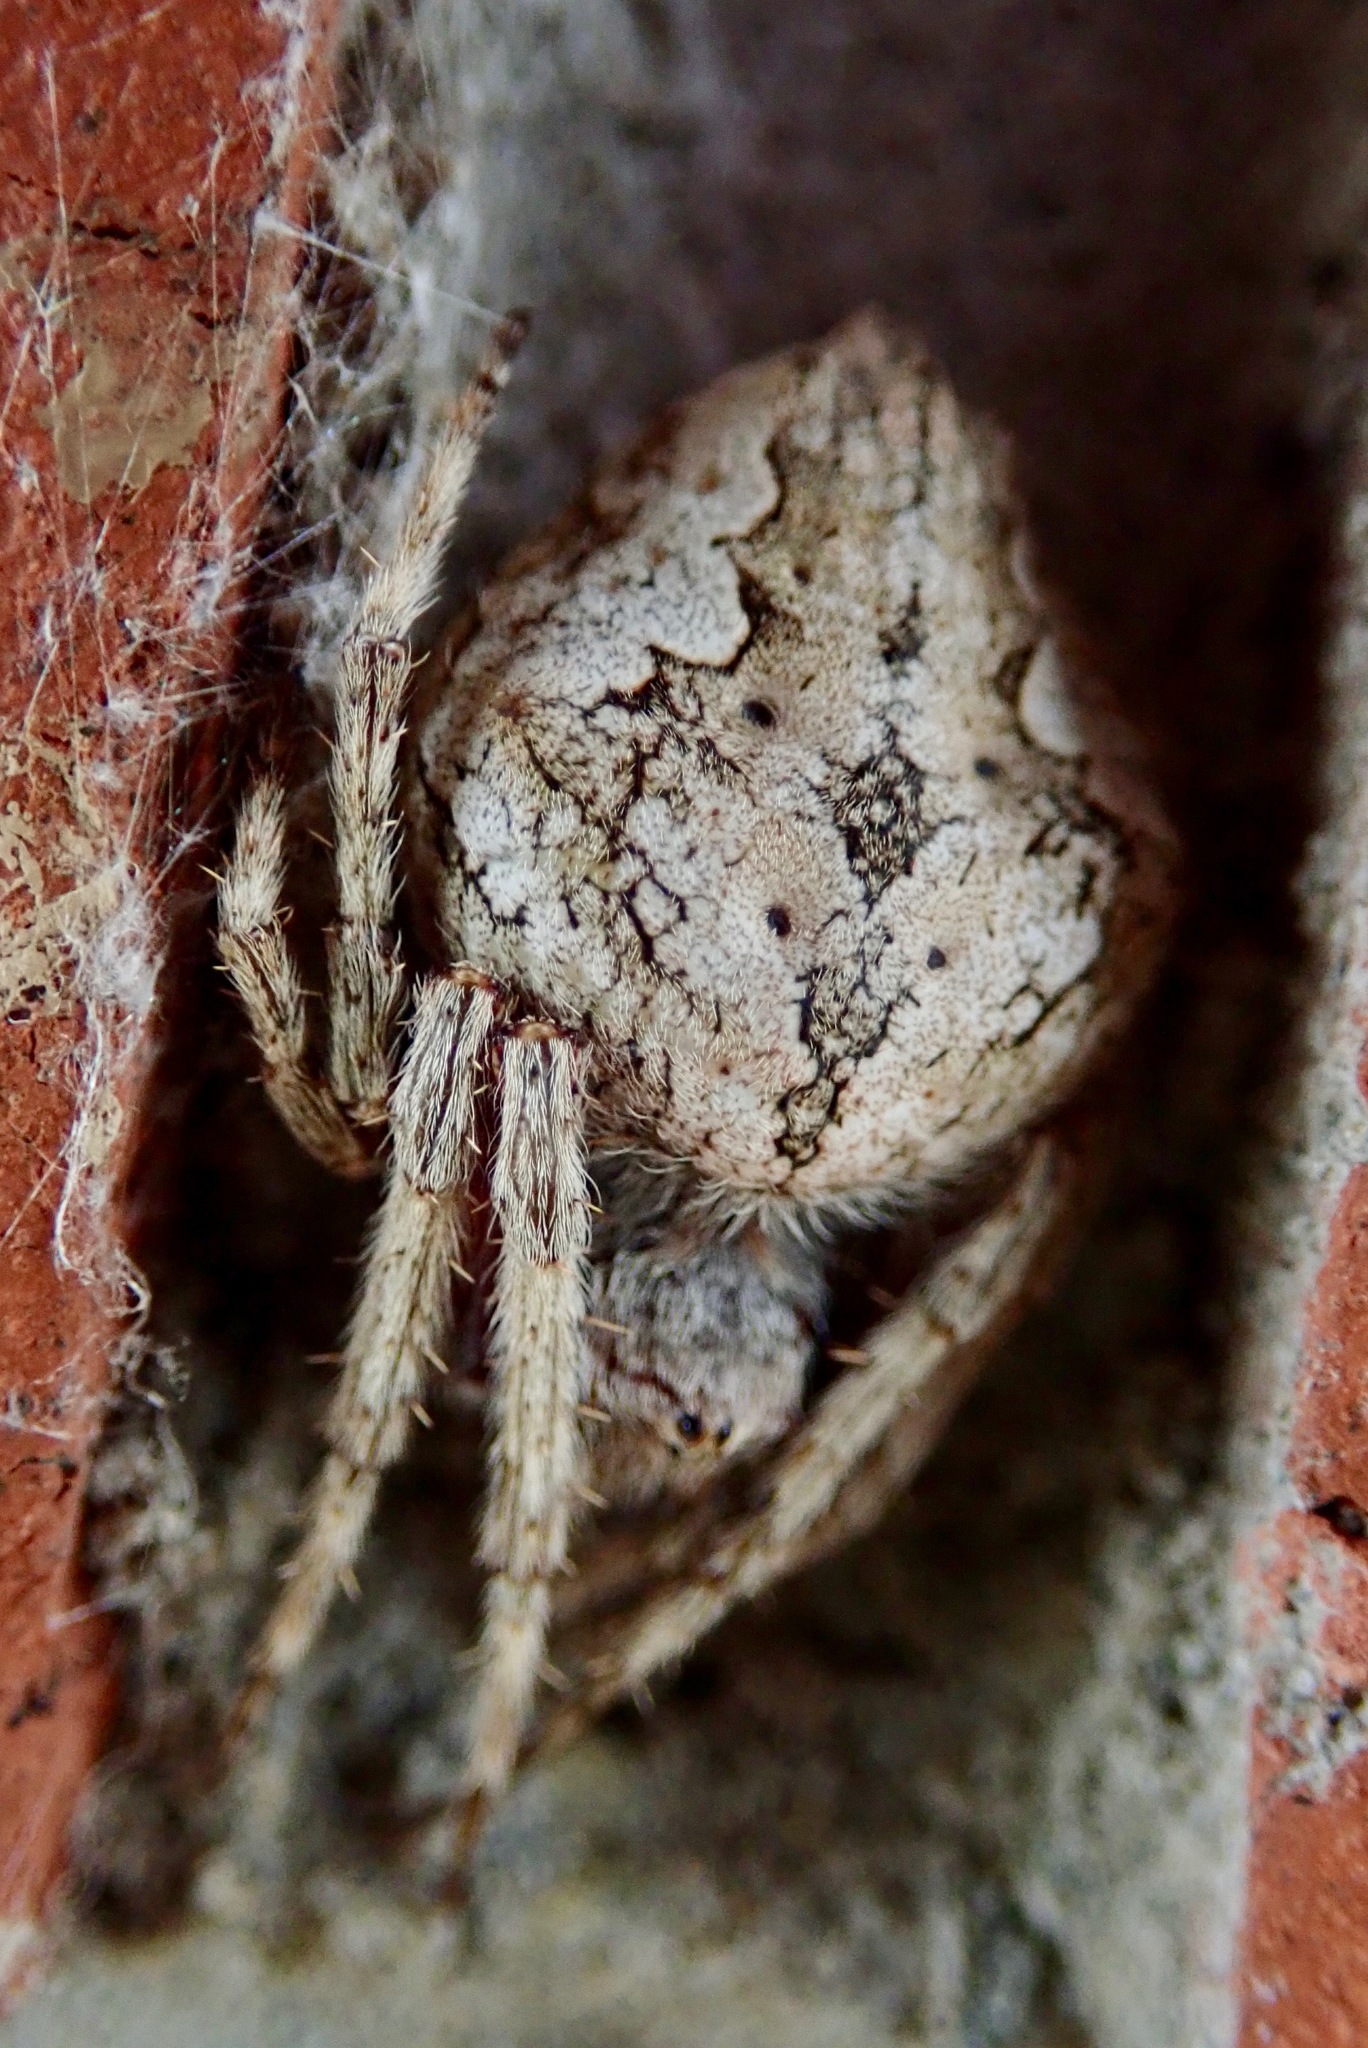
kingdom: Animalia
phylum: Arthropoda
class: Arachnida
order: Araneae
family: Araneidae
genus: Eriophora
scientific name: Eriophora pustulosa
